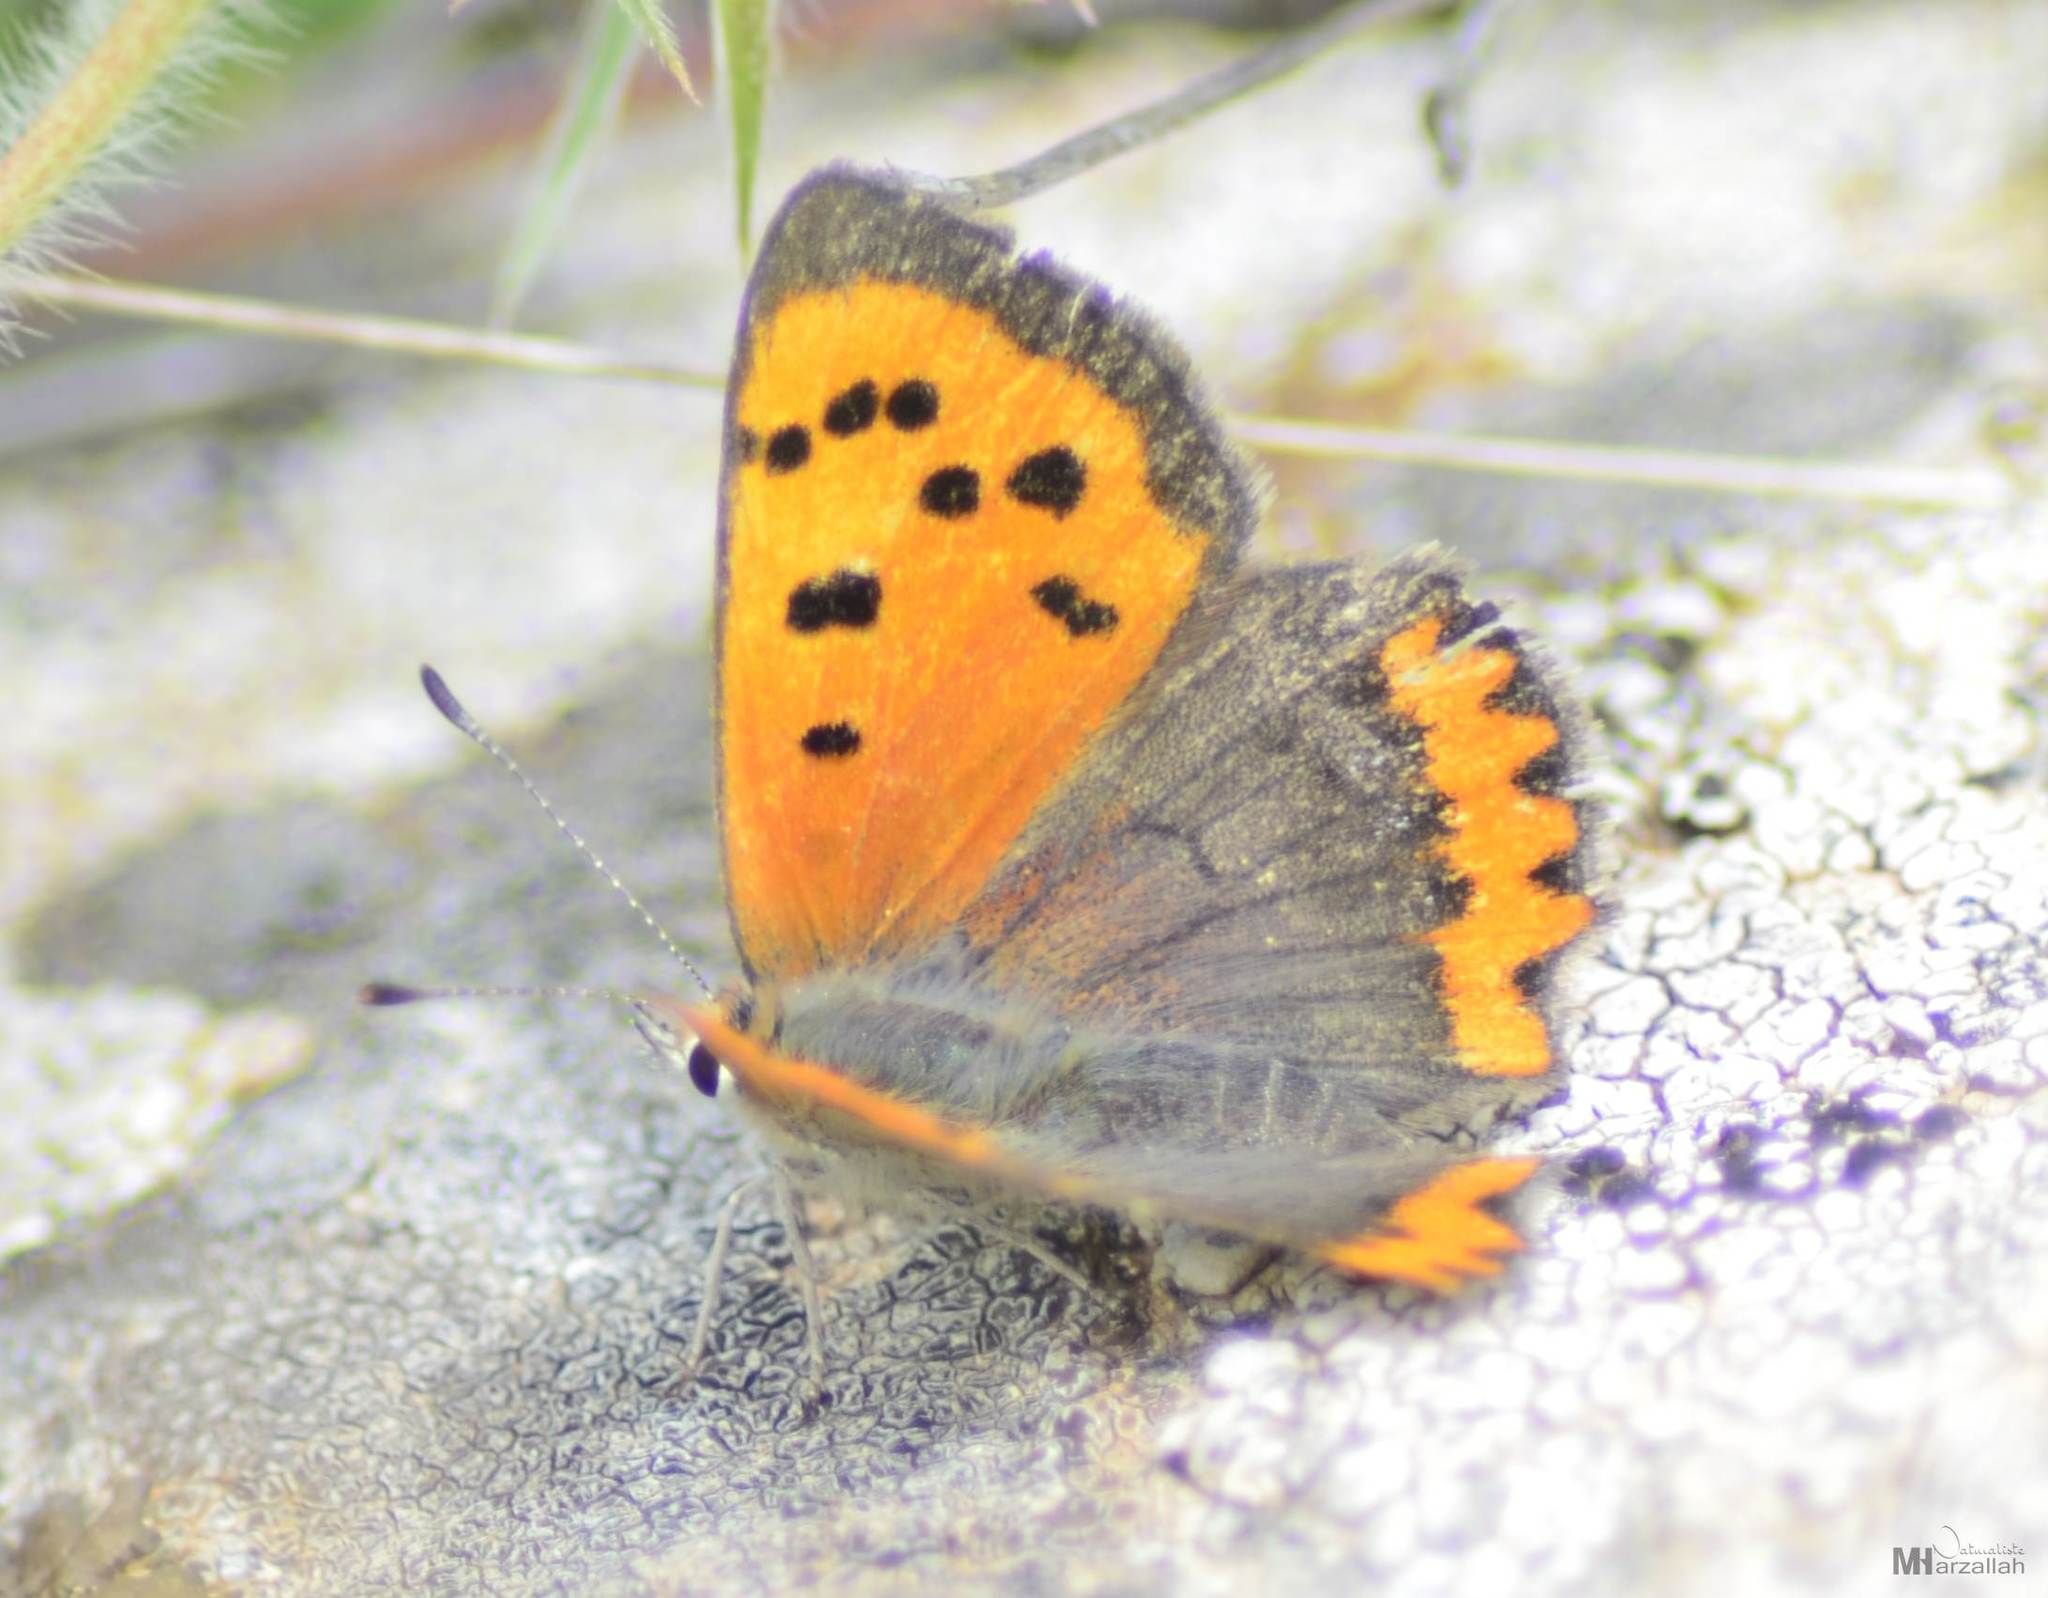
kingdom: Animalia
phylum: Arthropoda
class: Insecta
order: Lepidoptera
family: Lycaenidae
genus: Lycaena
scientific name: Lycaena phlaeas
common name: Small copper
